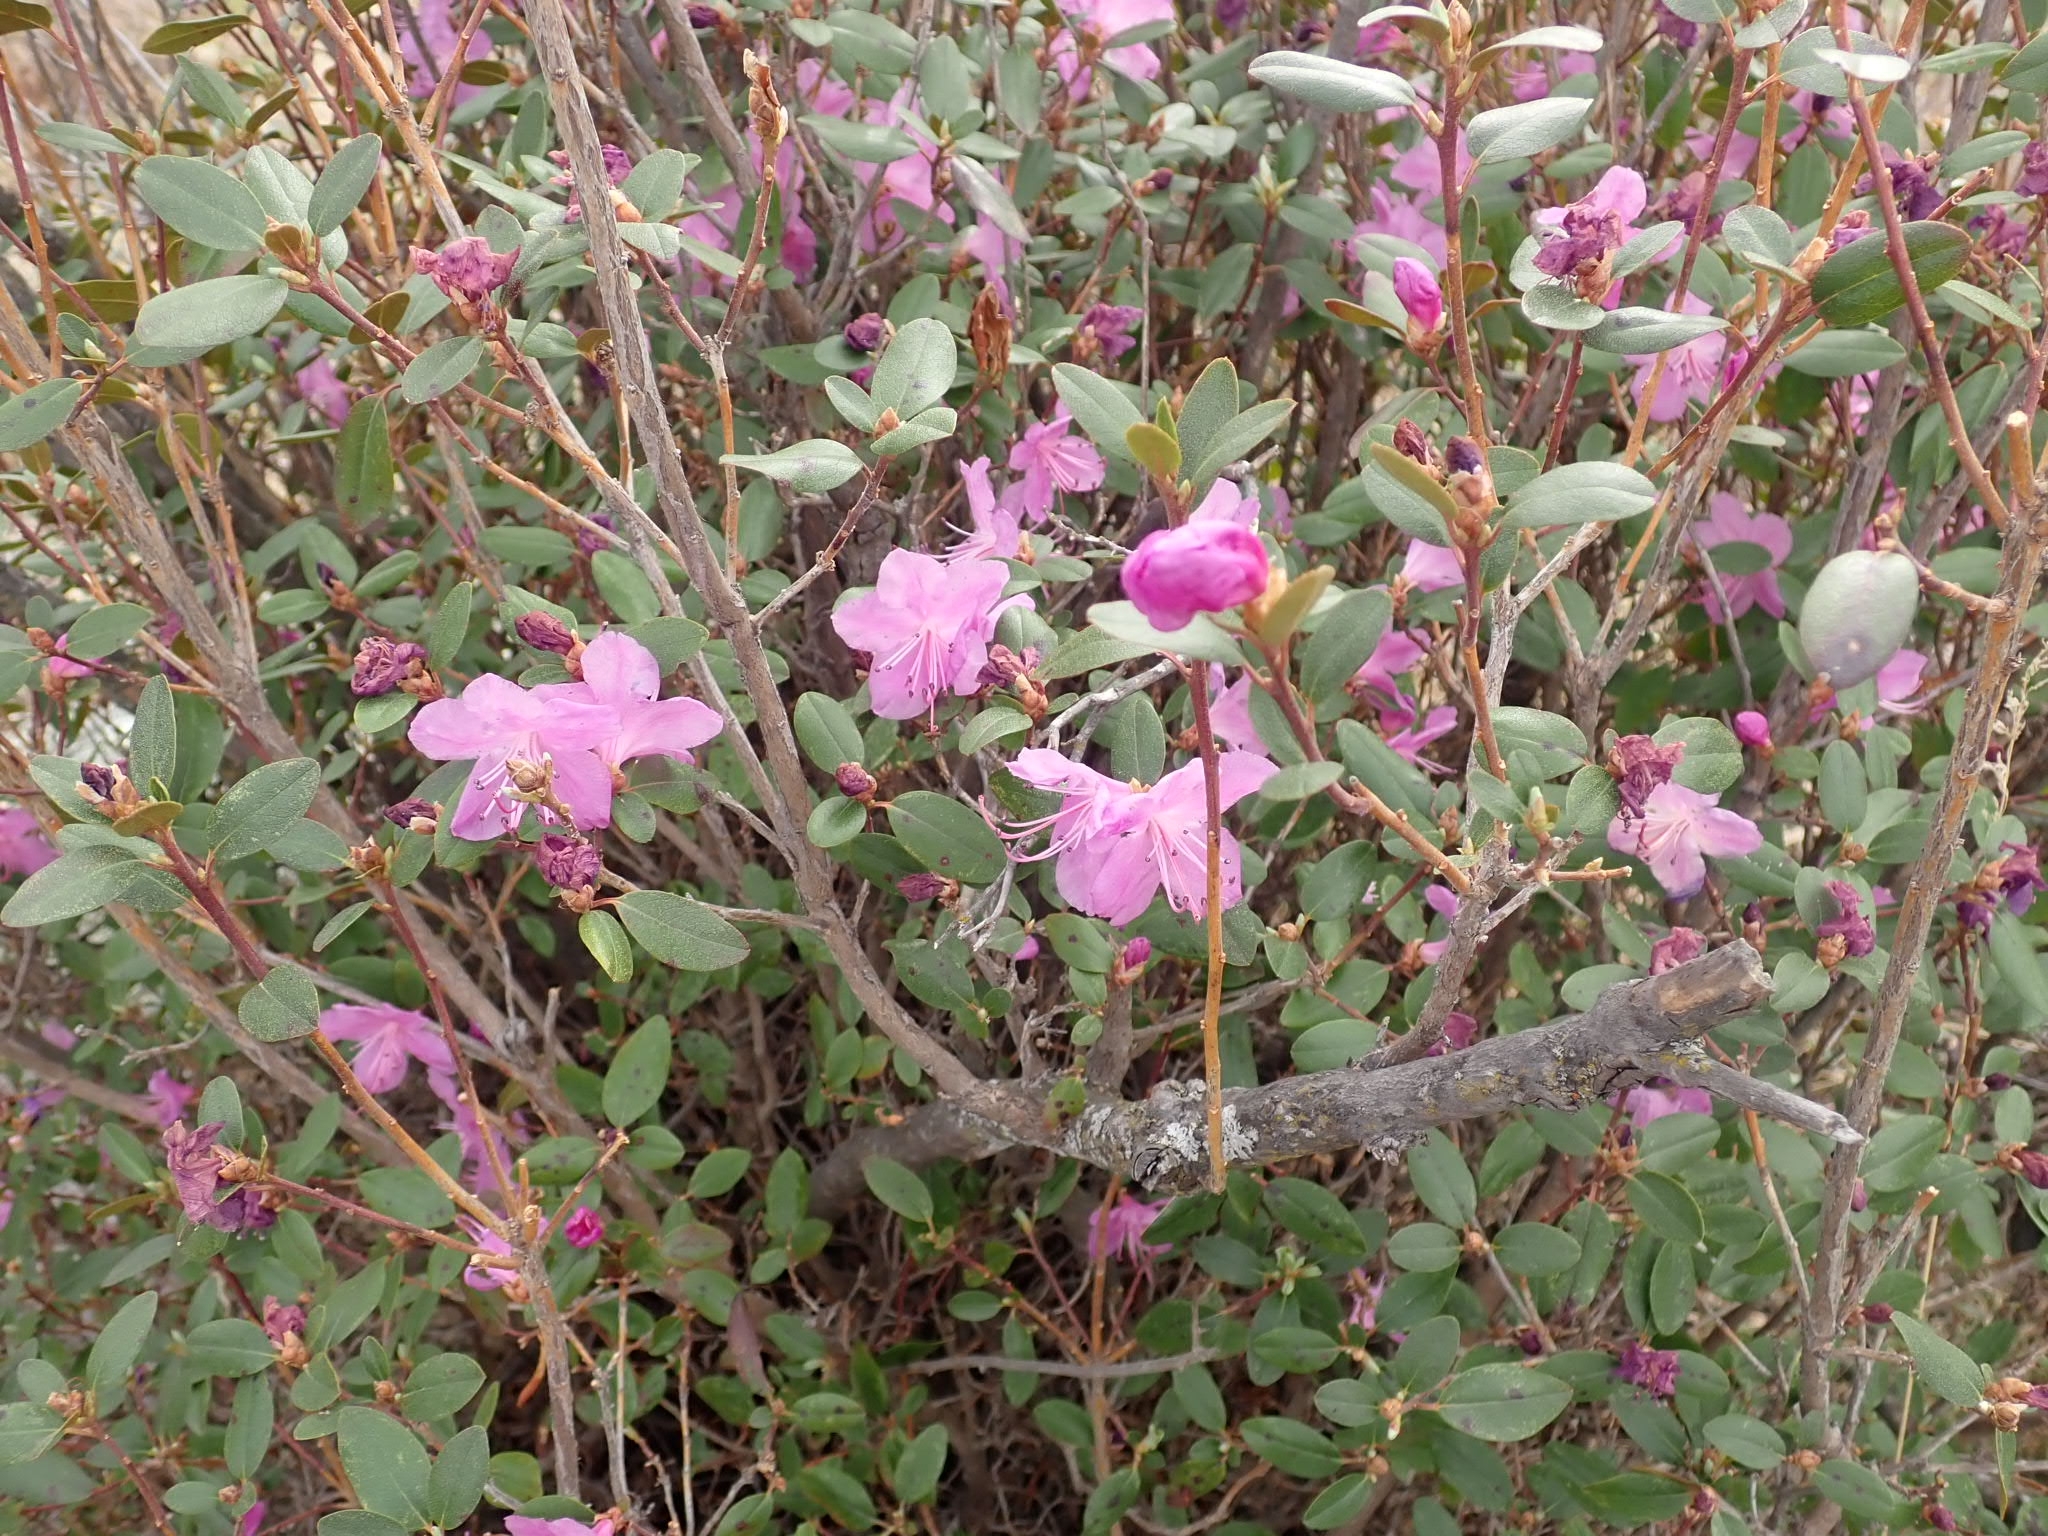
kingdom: Plantae
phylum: Tracheophyta
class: Magnoliopsida
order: Ericales
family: Ericaceae
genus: Rhododendron
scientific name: Rhododendron dauricum
